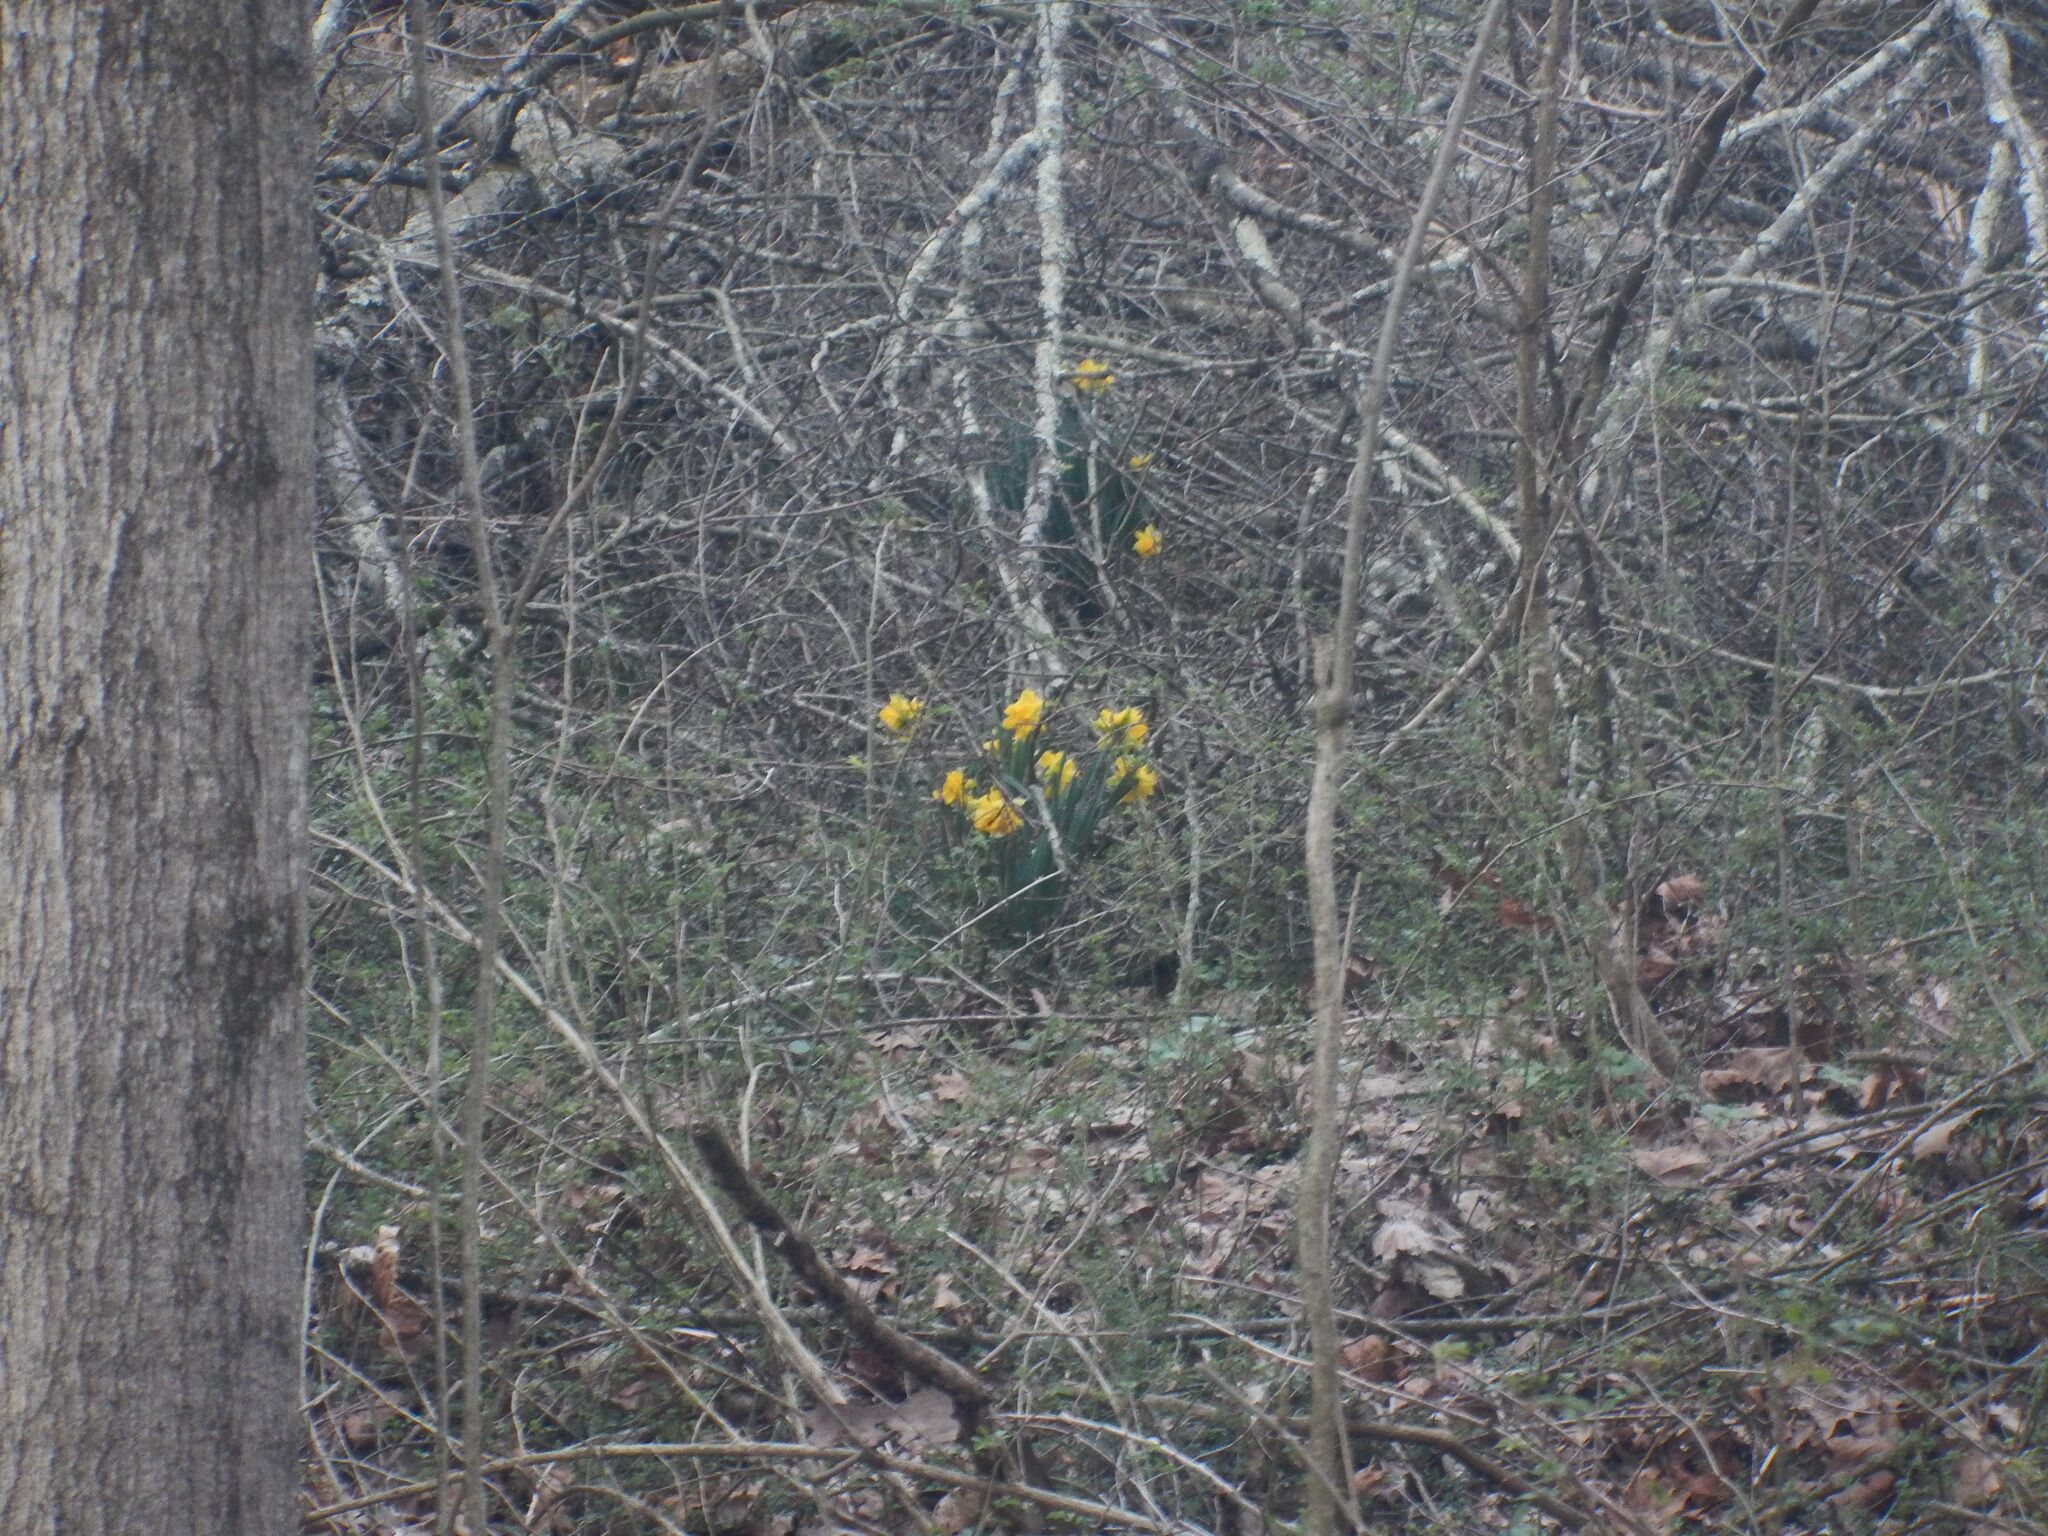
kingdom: Plantae
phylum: Tracheophyta
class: Liliopsida
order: Asparagales
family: Amaryllidaceae
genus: Narcissus
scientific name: Narcissus pseudonarcissus
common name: Daffodil
